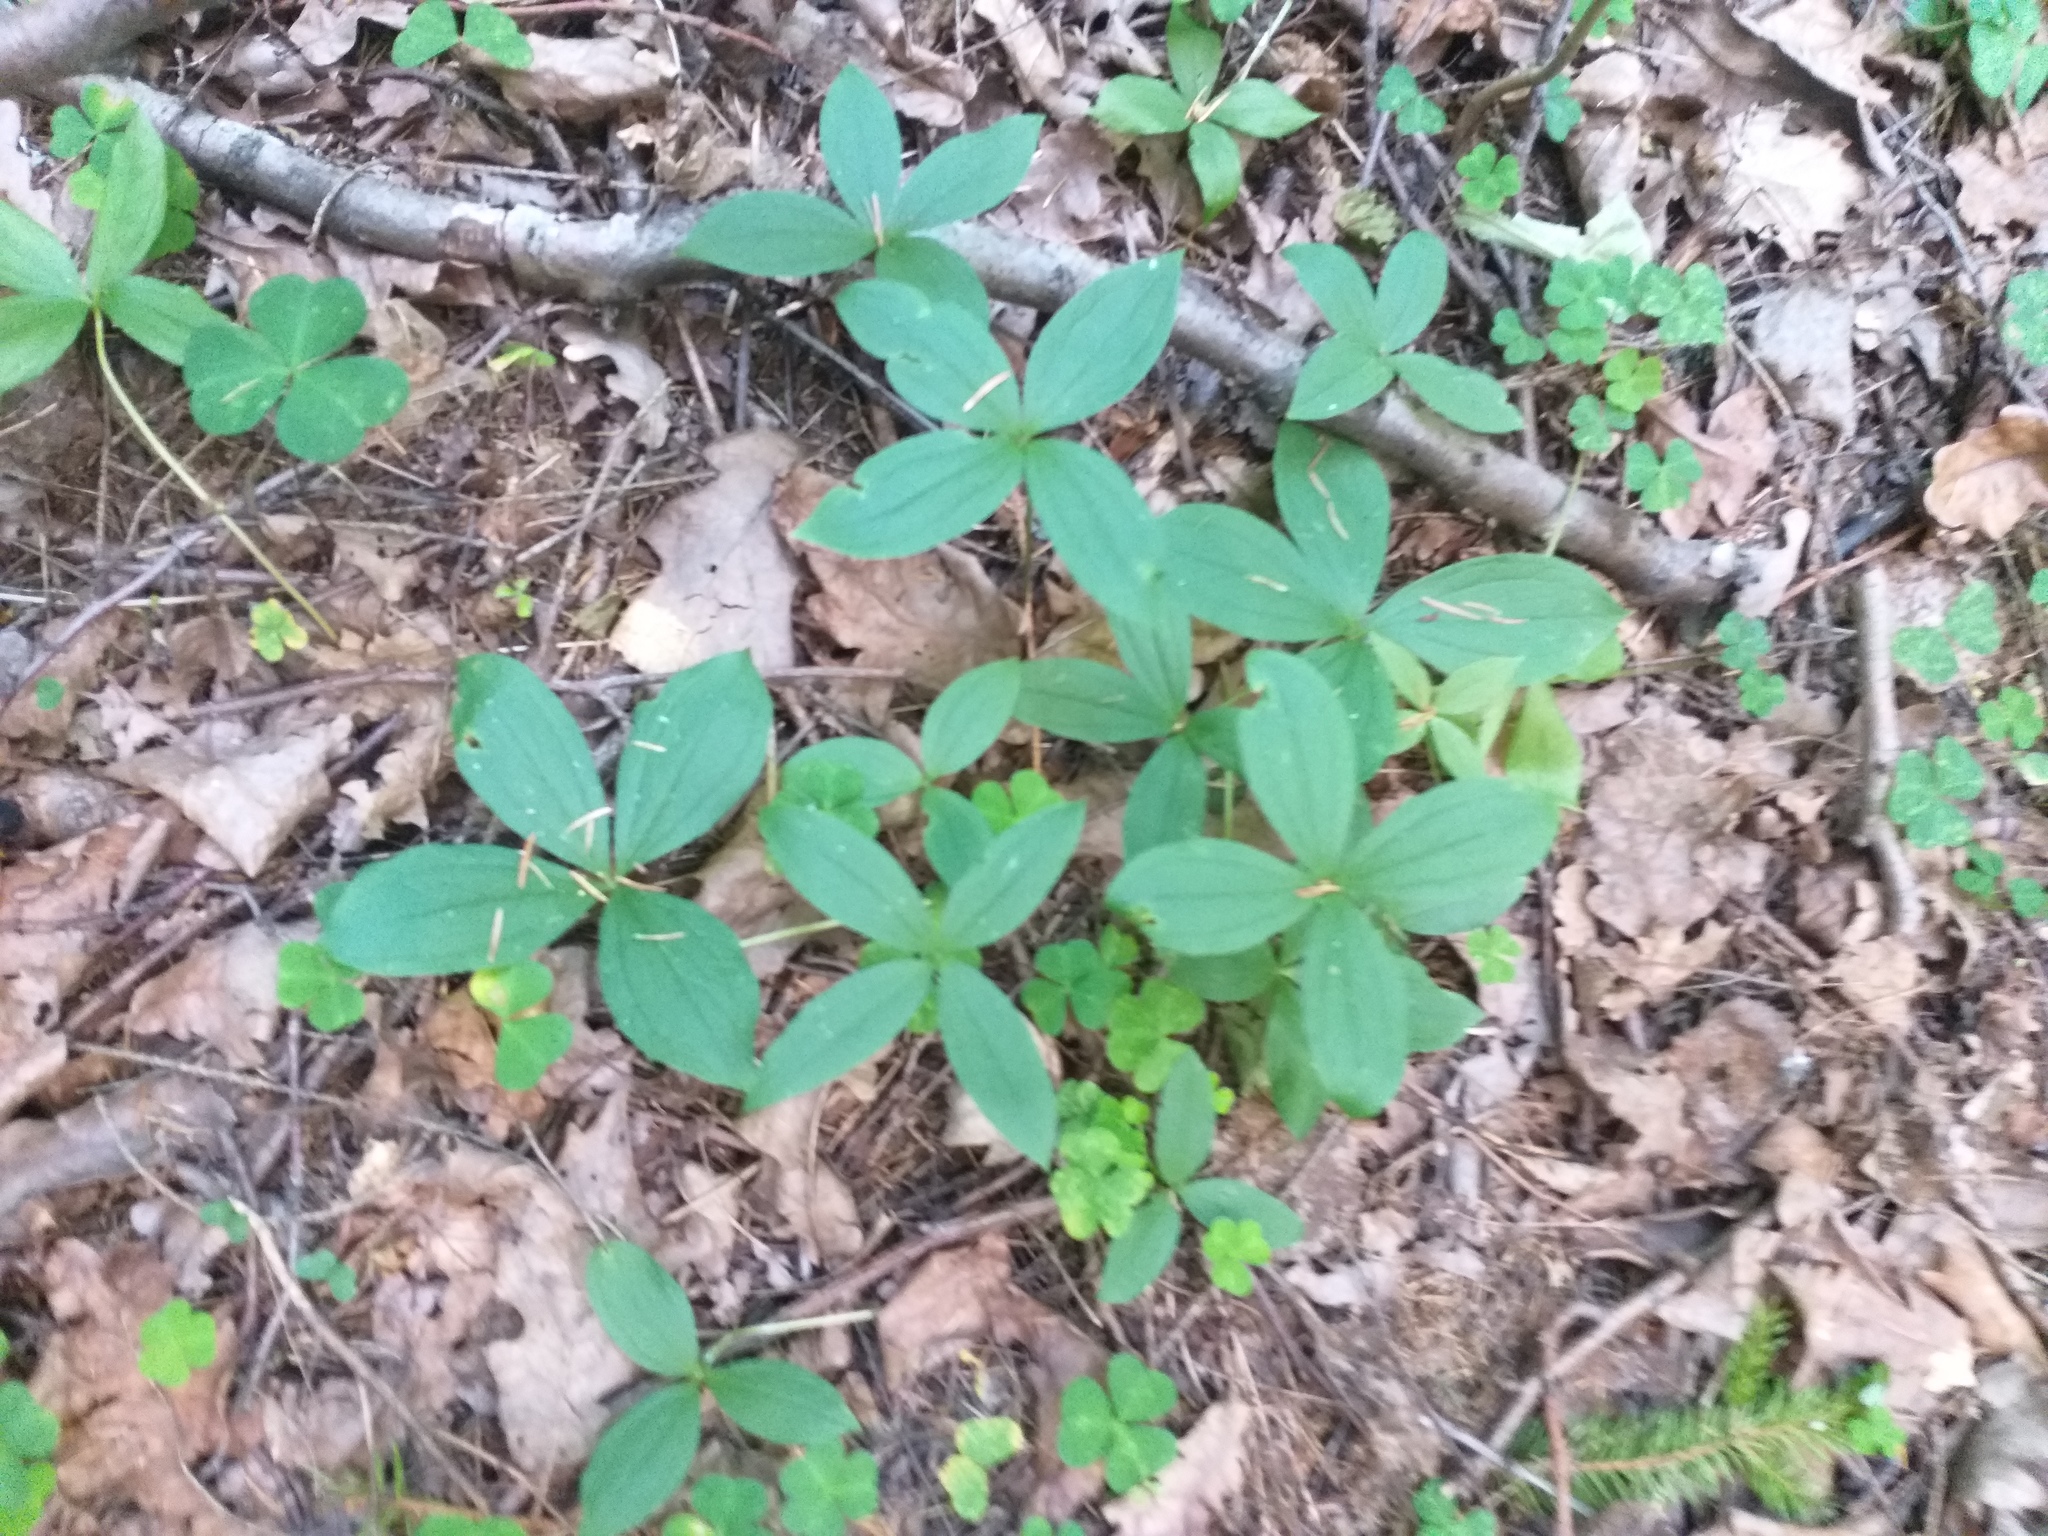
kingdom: Plantae
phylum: Tracheophyta
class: Liliopsida
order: Liliales
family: Melanthiaceae
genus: Paris
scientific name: Paris quadrifolia
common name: Herb-paris
